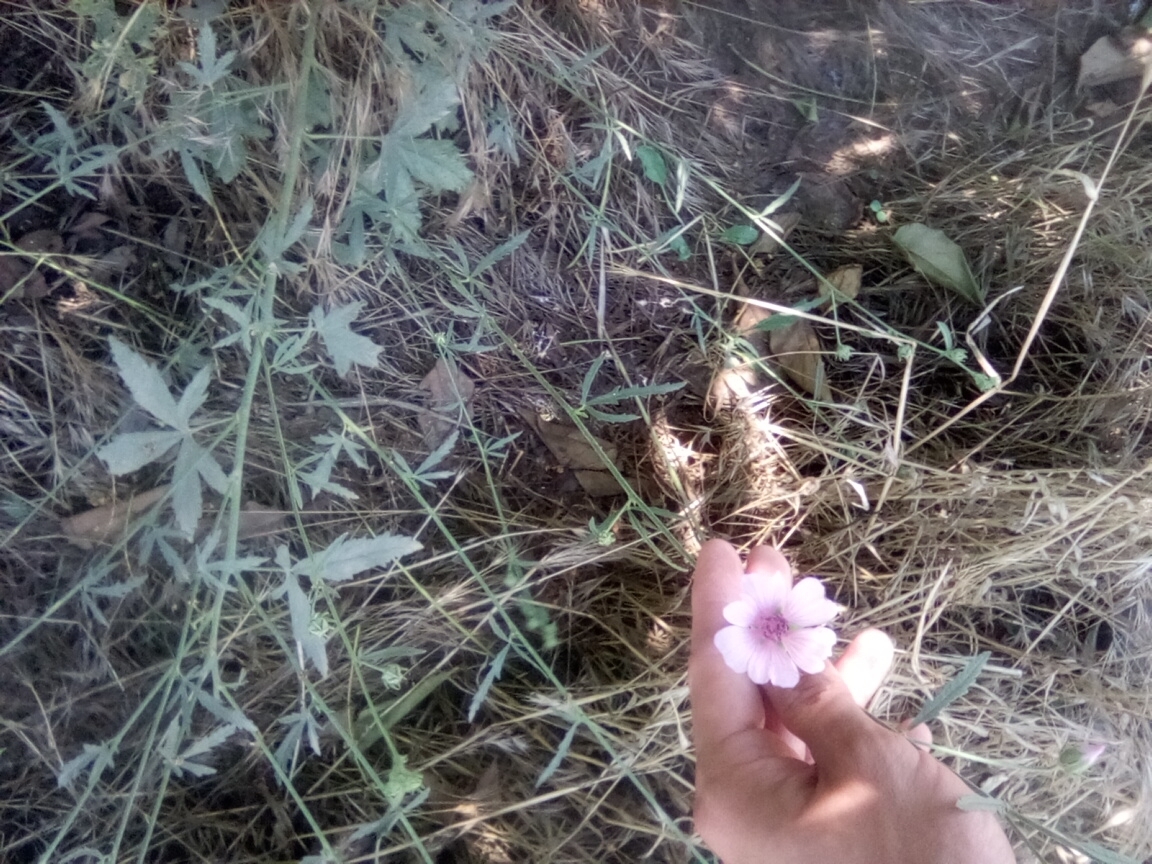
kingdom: Plantae
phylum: Tracheophyta
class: Magnoliopsida
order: Malvales
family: Malvaceae
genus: Althaea
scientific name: Althaea cannabina
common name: Palm-leaf marshmallow
